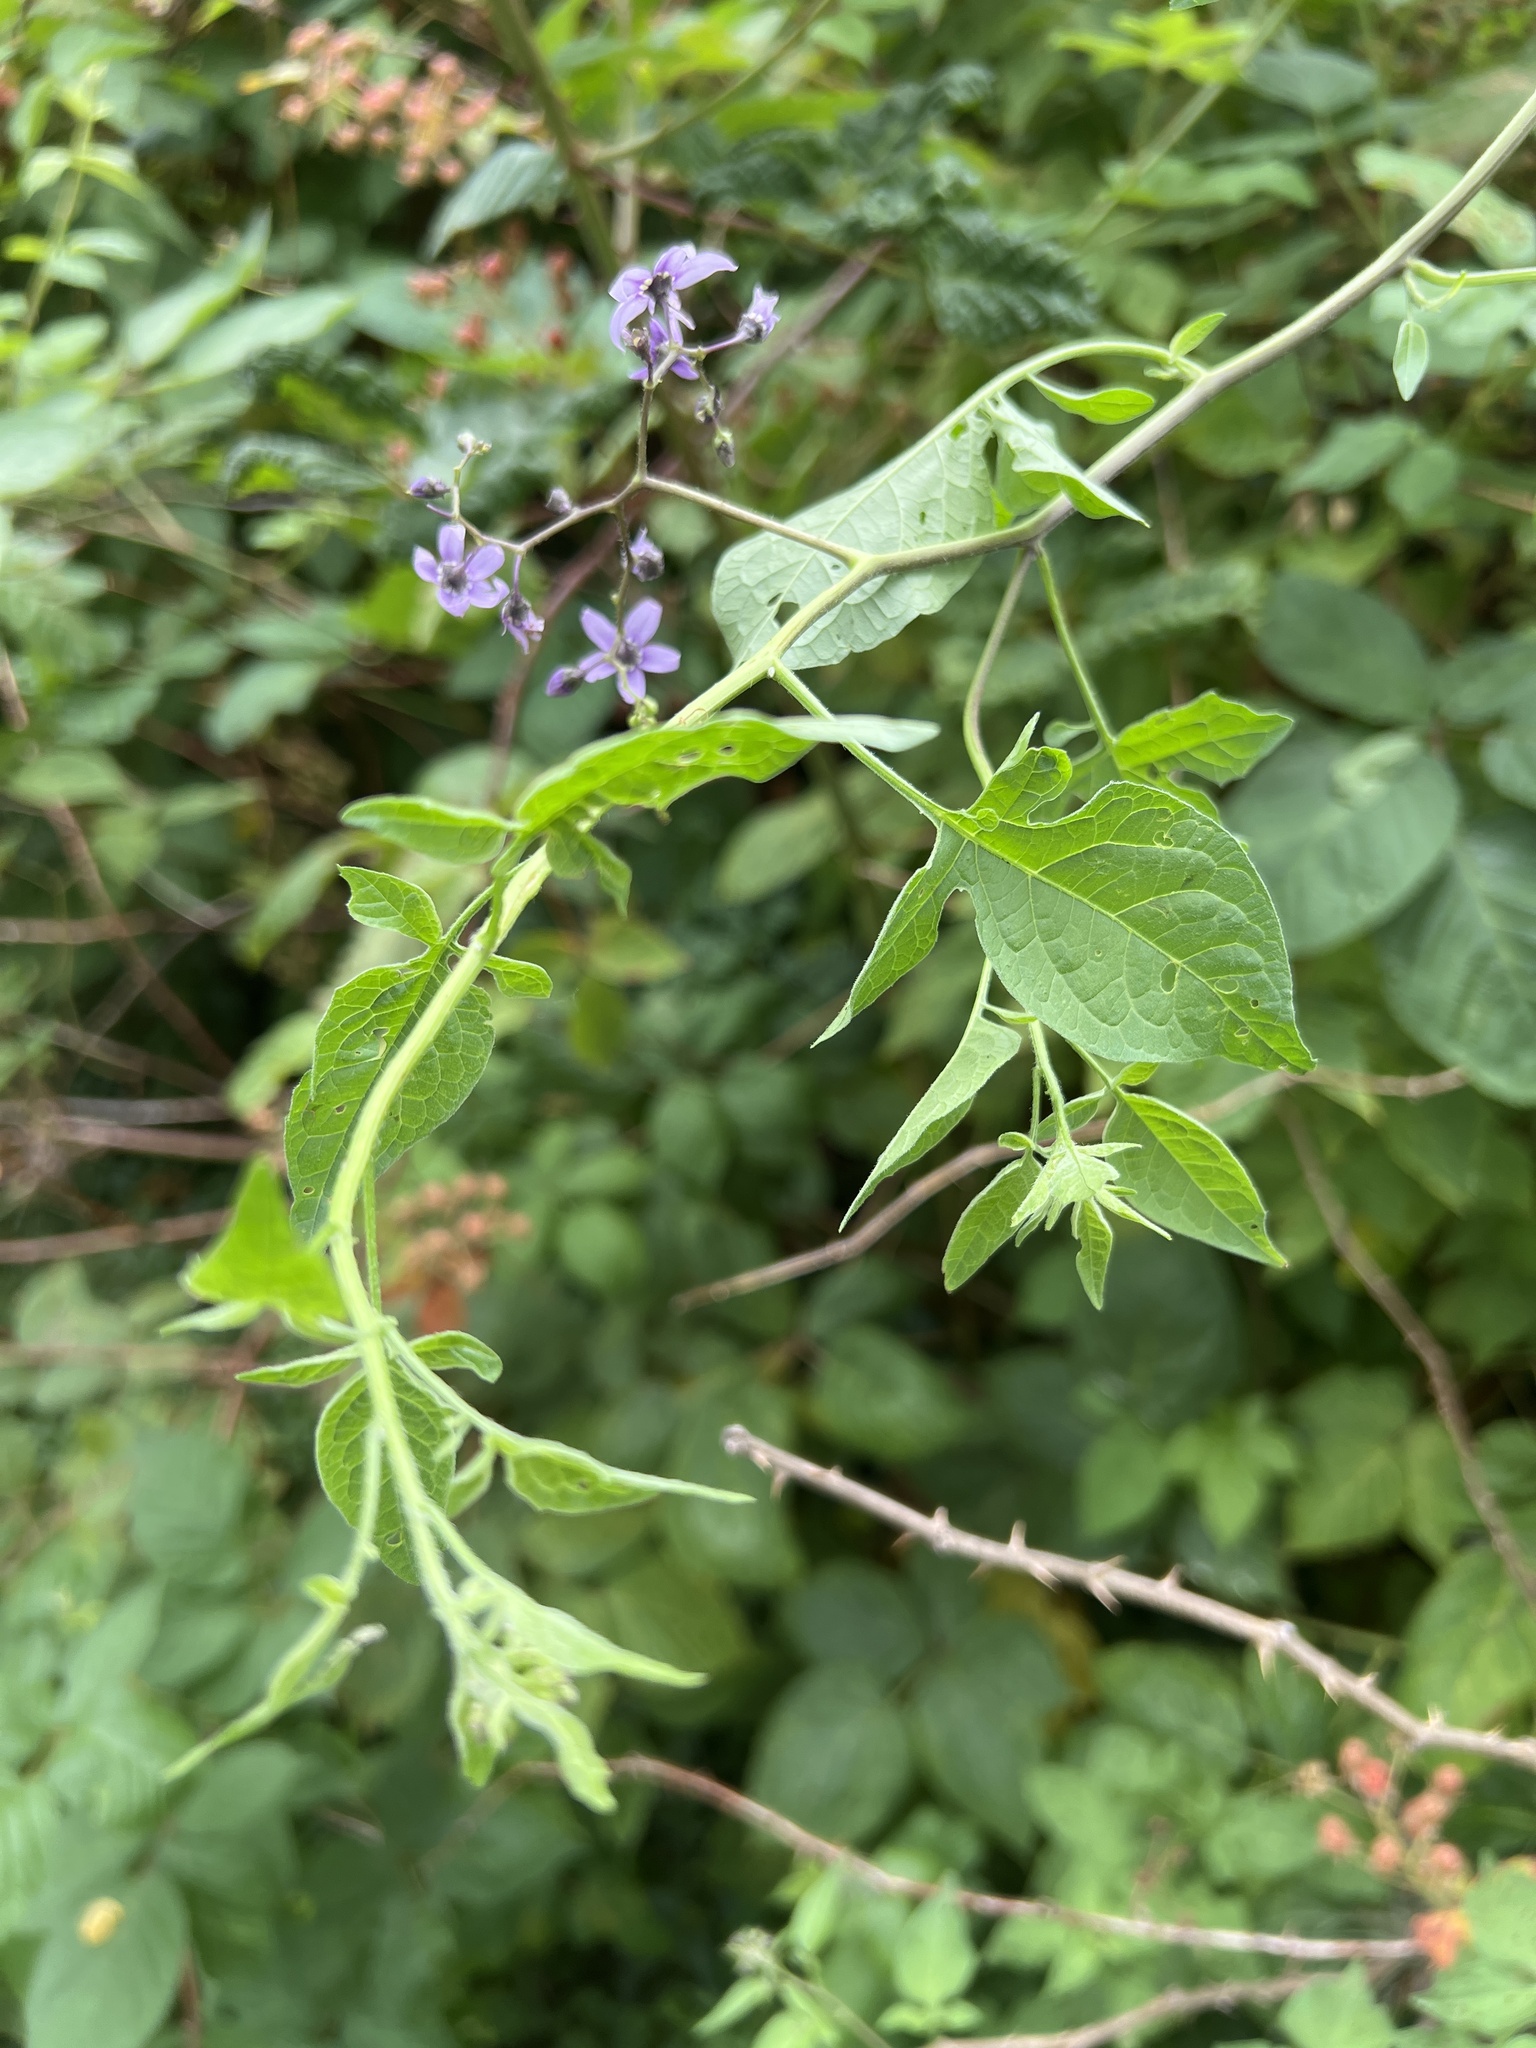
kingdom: Plantae
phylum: Tracheophyta
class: Magnoliopsida
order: Solanales
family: Solanaceae
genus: Solanum
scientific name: Solanum dulcamara
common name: Climbing nightshade
